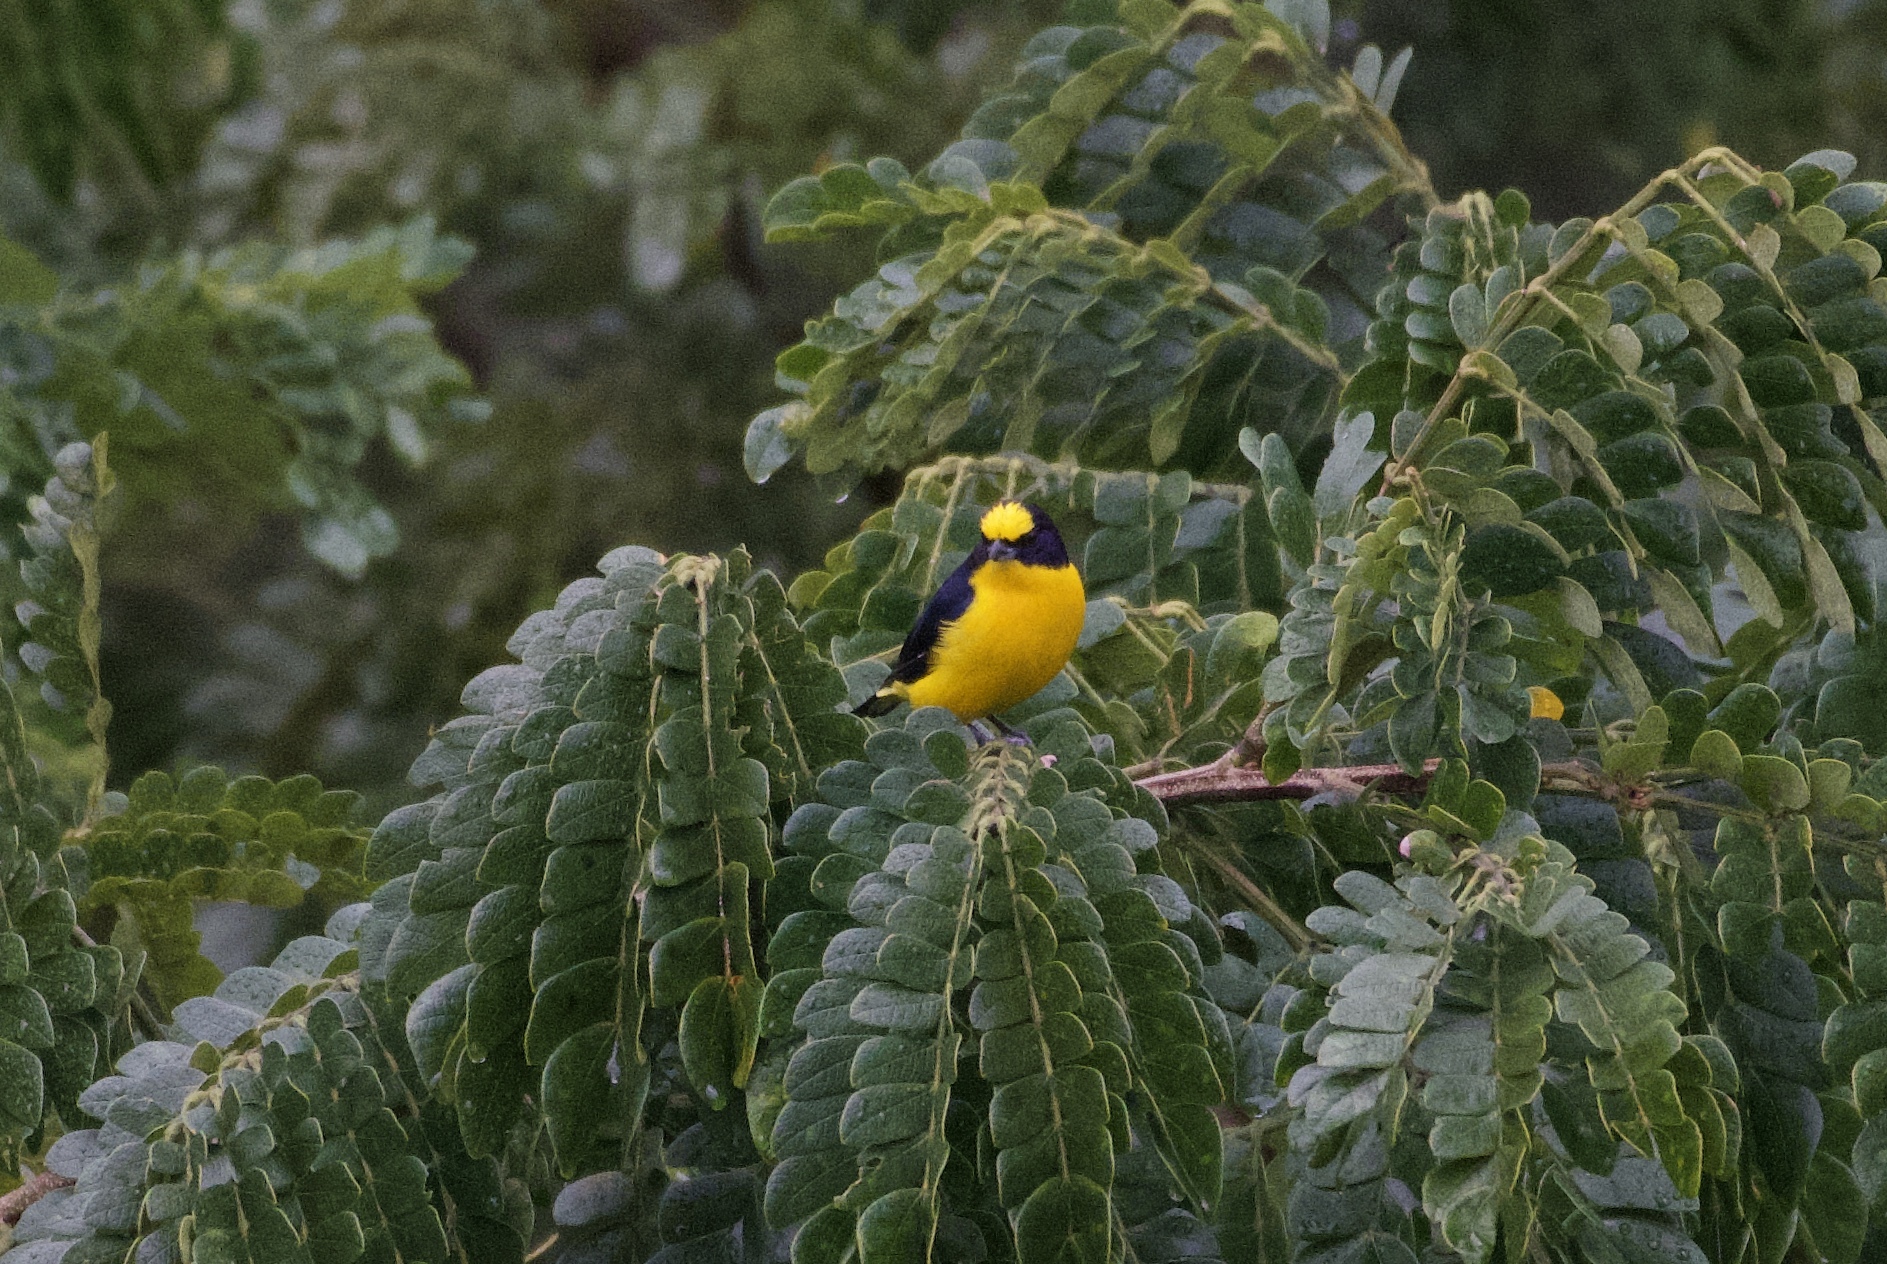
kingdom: Animalia
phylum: Chordata
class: Aves
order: Passeriformes
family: Fringillidae
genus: Euphonia
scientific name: Euphonia laniirostris
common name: Thick-billed euphonia
